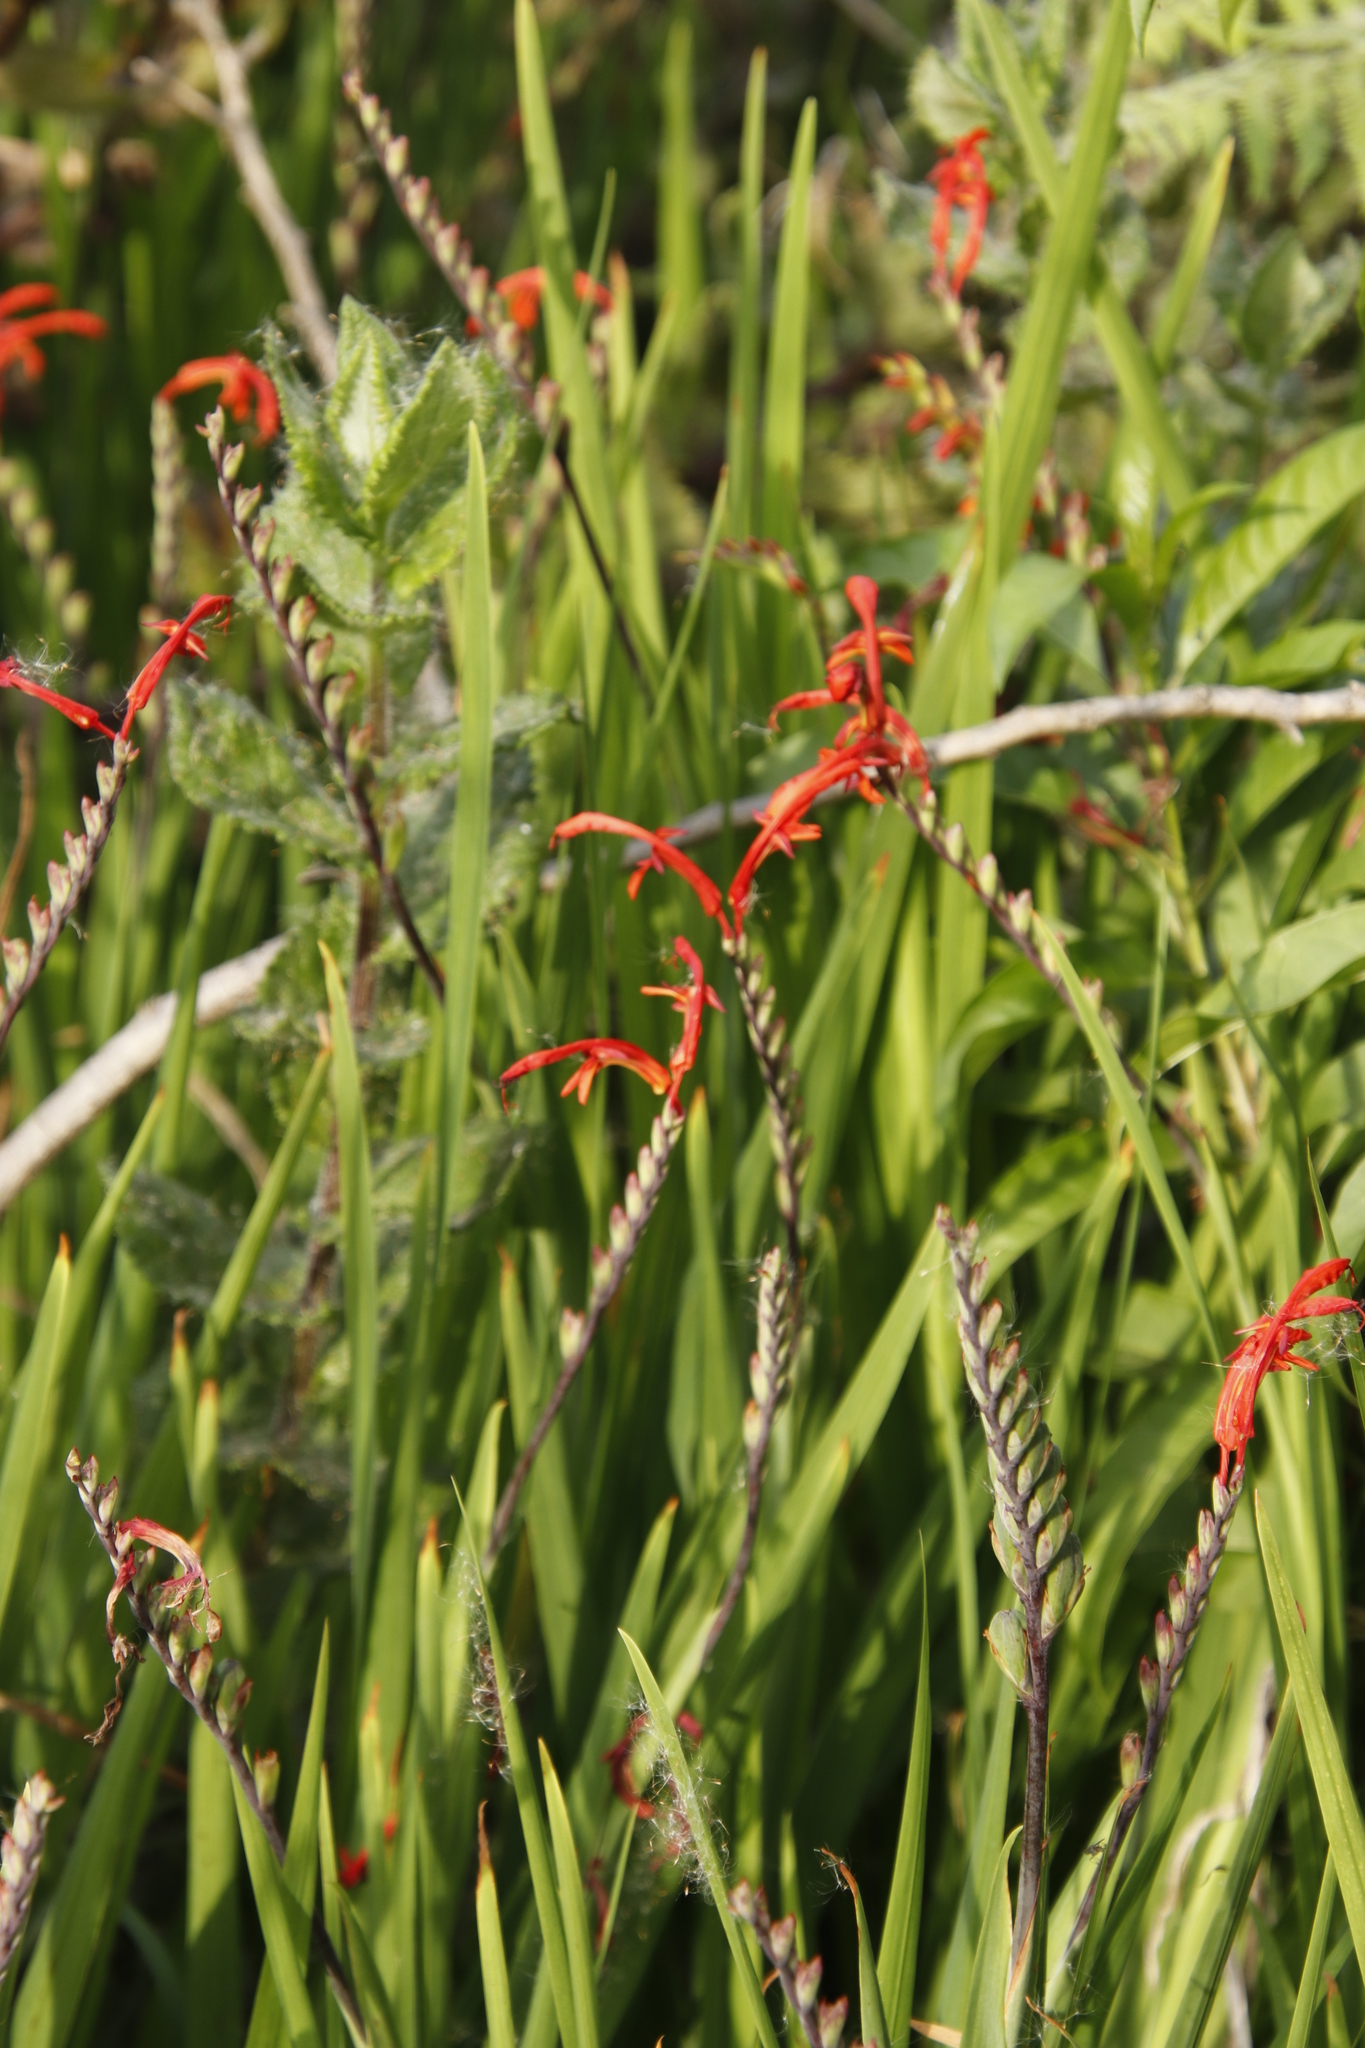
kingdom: Plantae
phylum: Tracheophyta
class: Liliopsida
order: Asparagales
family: Iridaceae
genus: Chasmanthe
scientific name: Chasmanthe aethiopica
